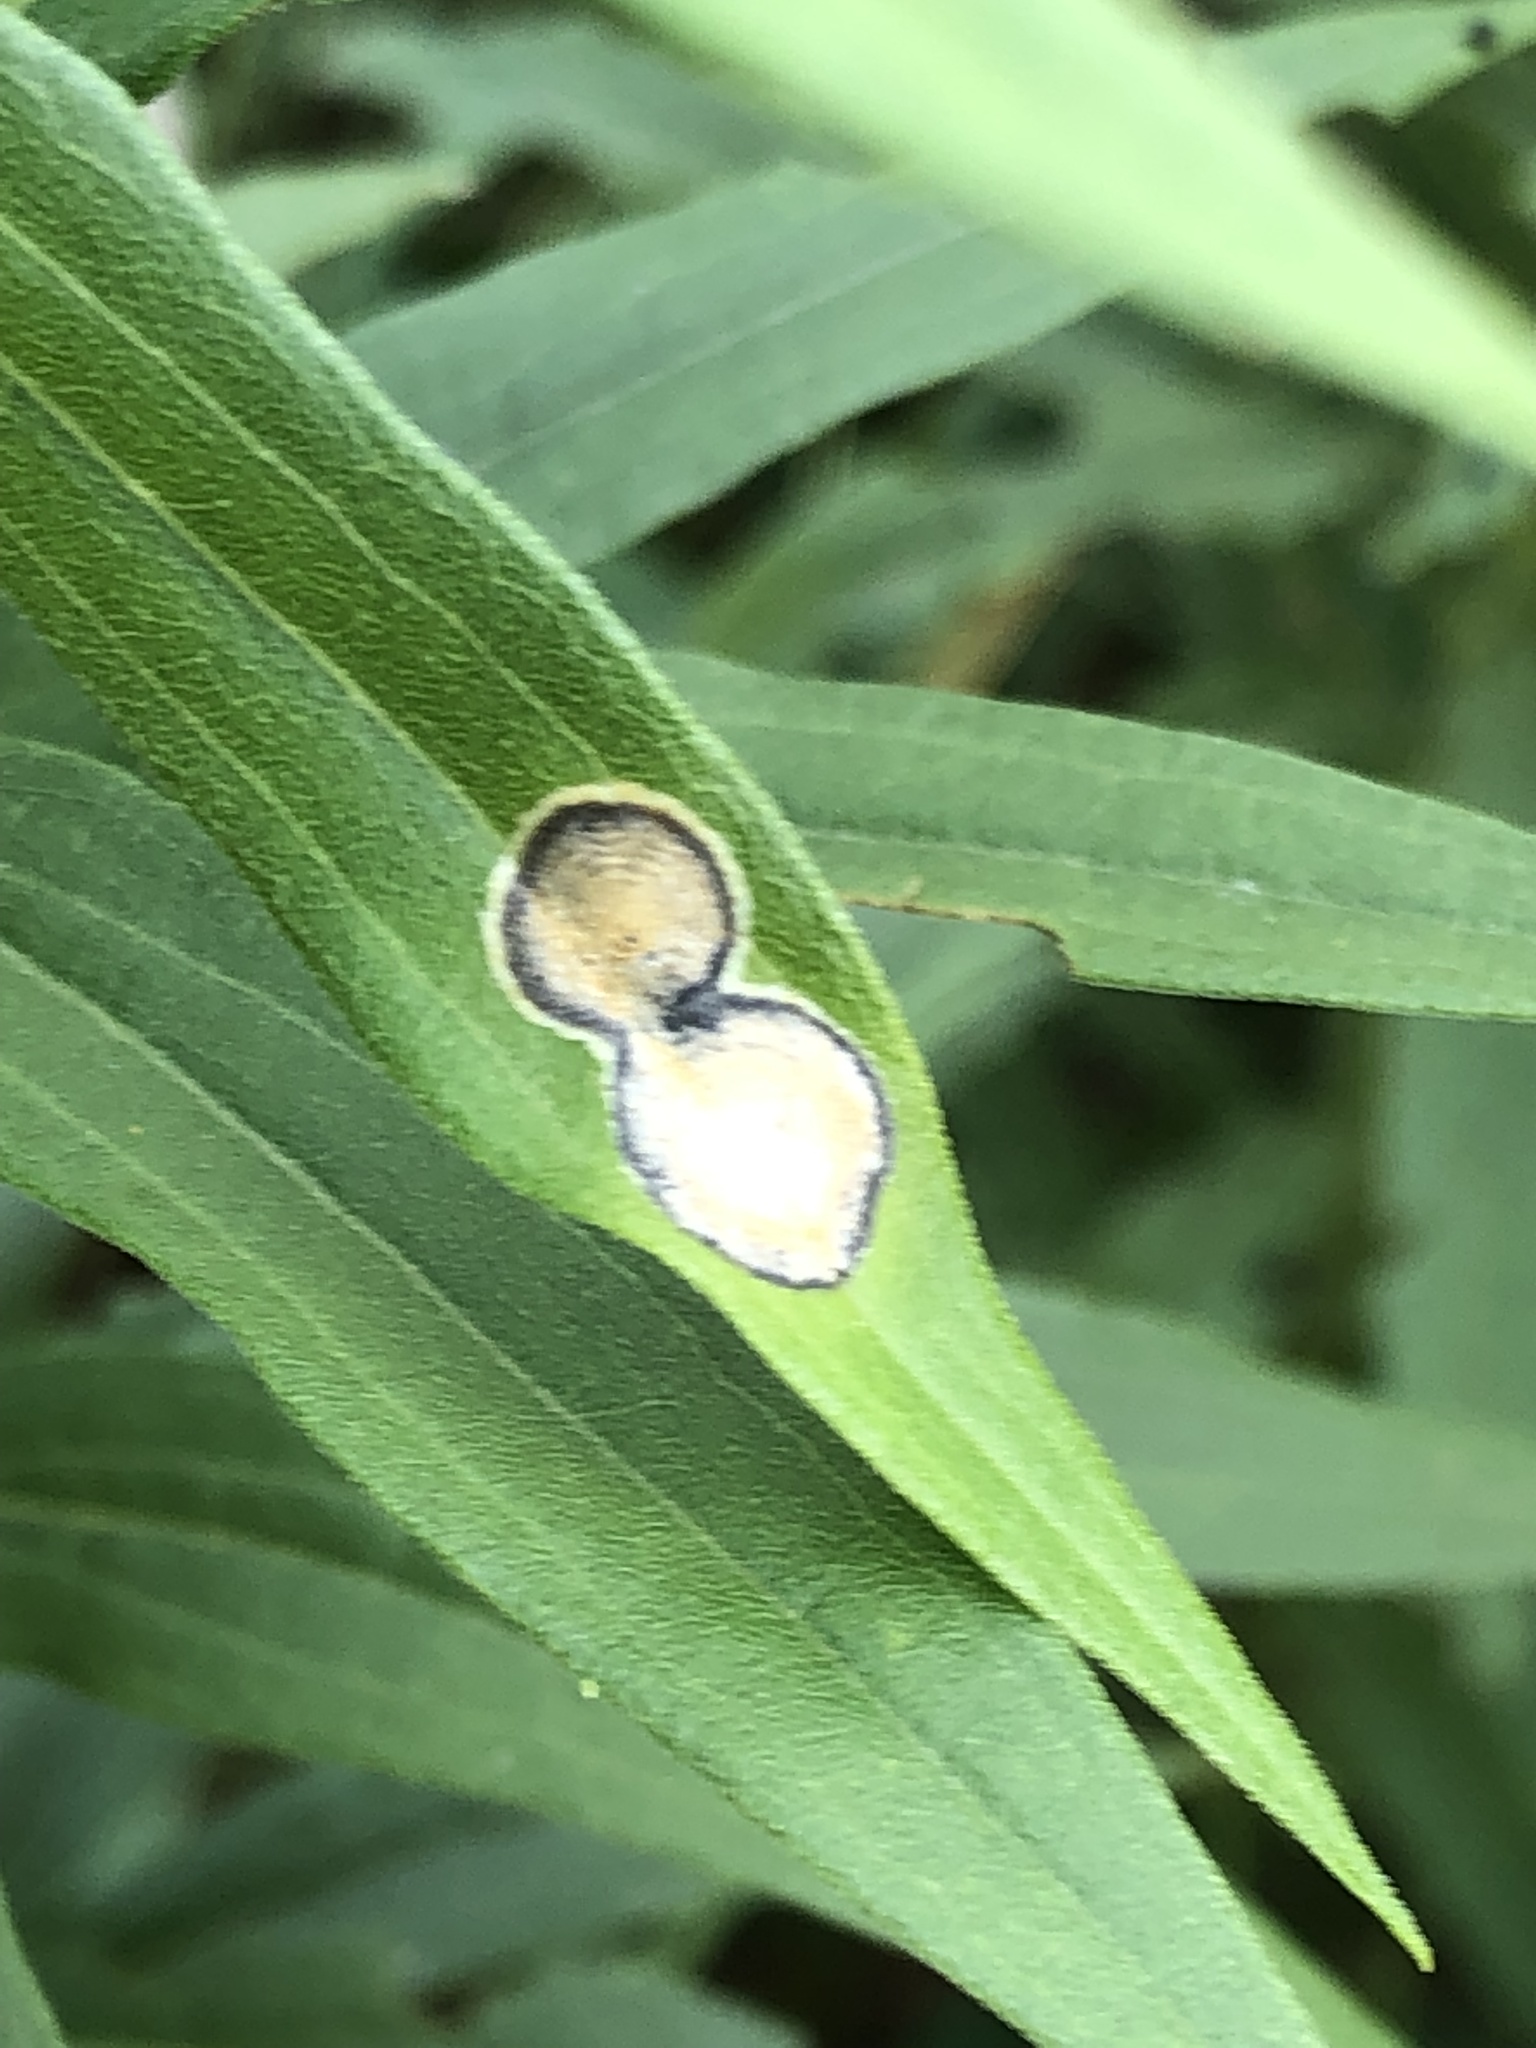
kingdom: Animalia
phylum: Arthropoda
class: Insecta
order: Diptera
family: Cecidomyiidae
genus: Asteromyia
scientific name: Asteromyia carbonifera
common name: Carbonifera goldenrod gall midge
